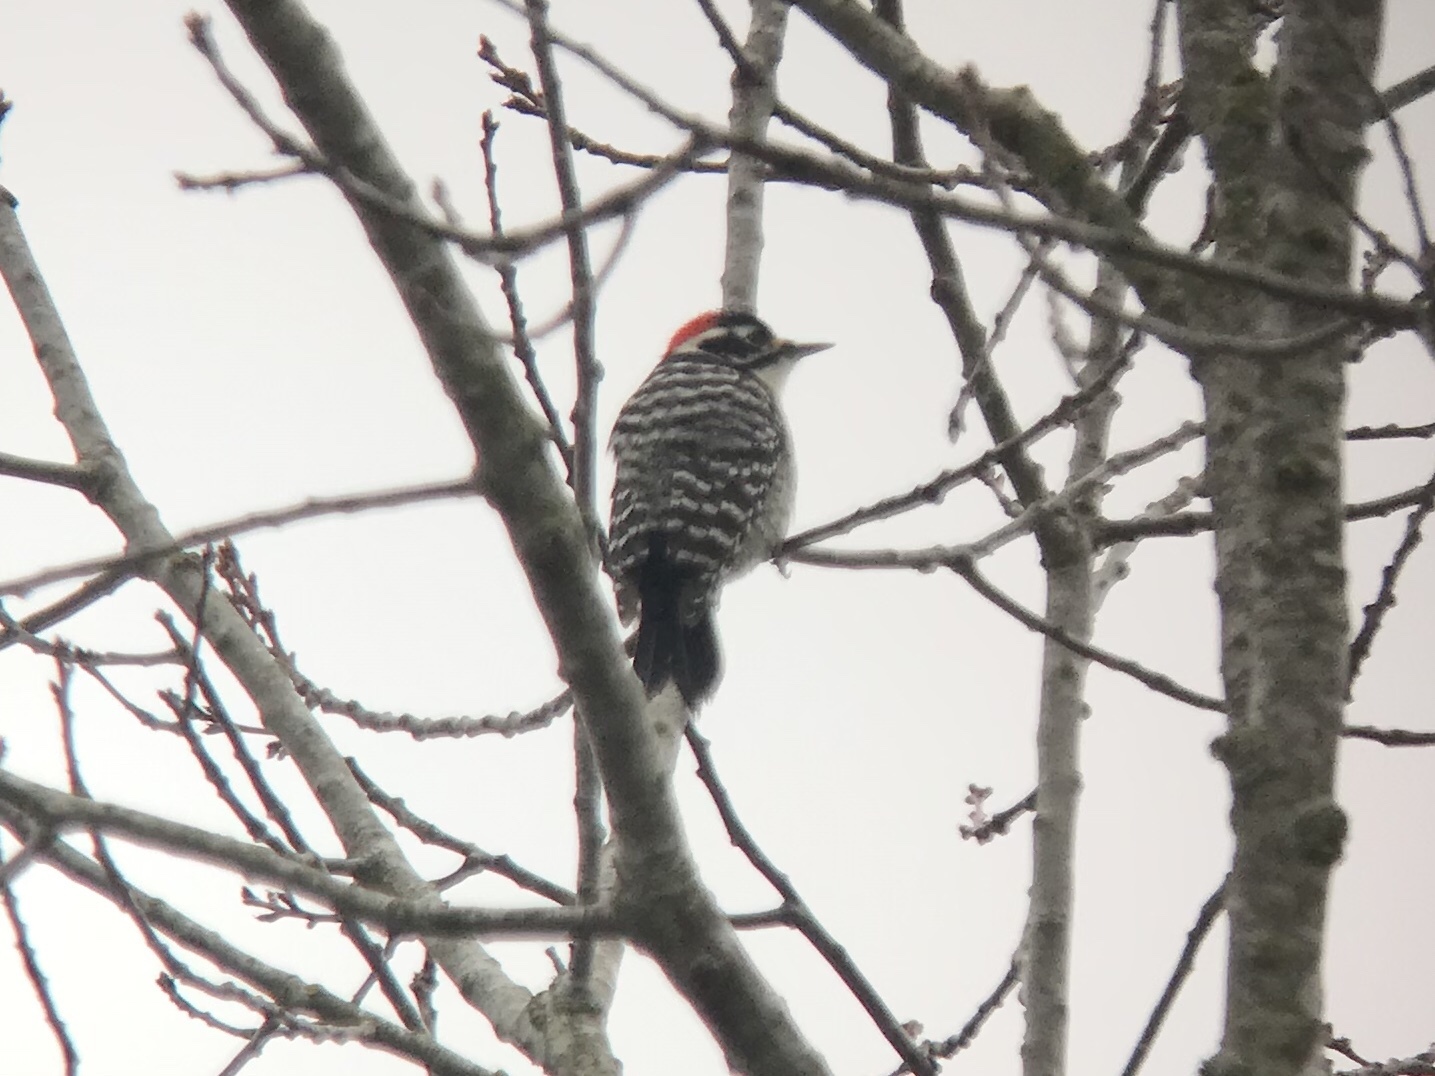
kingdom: Animalia
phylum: Chordata
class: Aves
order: Piciformes
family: Picidae
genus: Dryobates
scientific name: Dryobates nuttallii
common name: Nuttall's woodpecker
